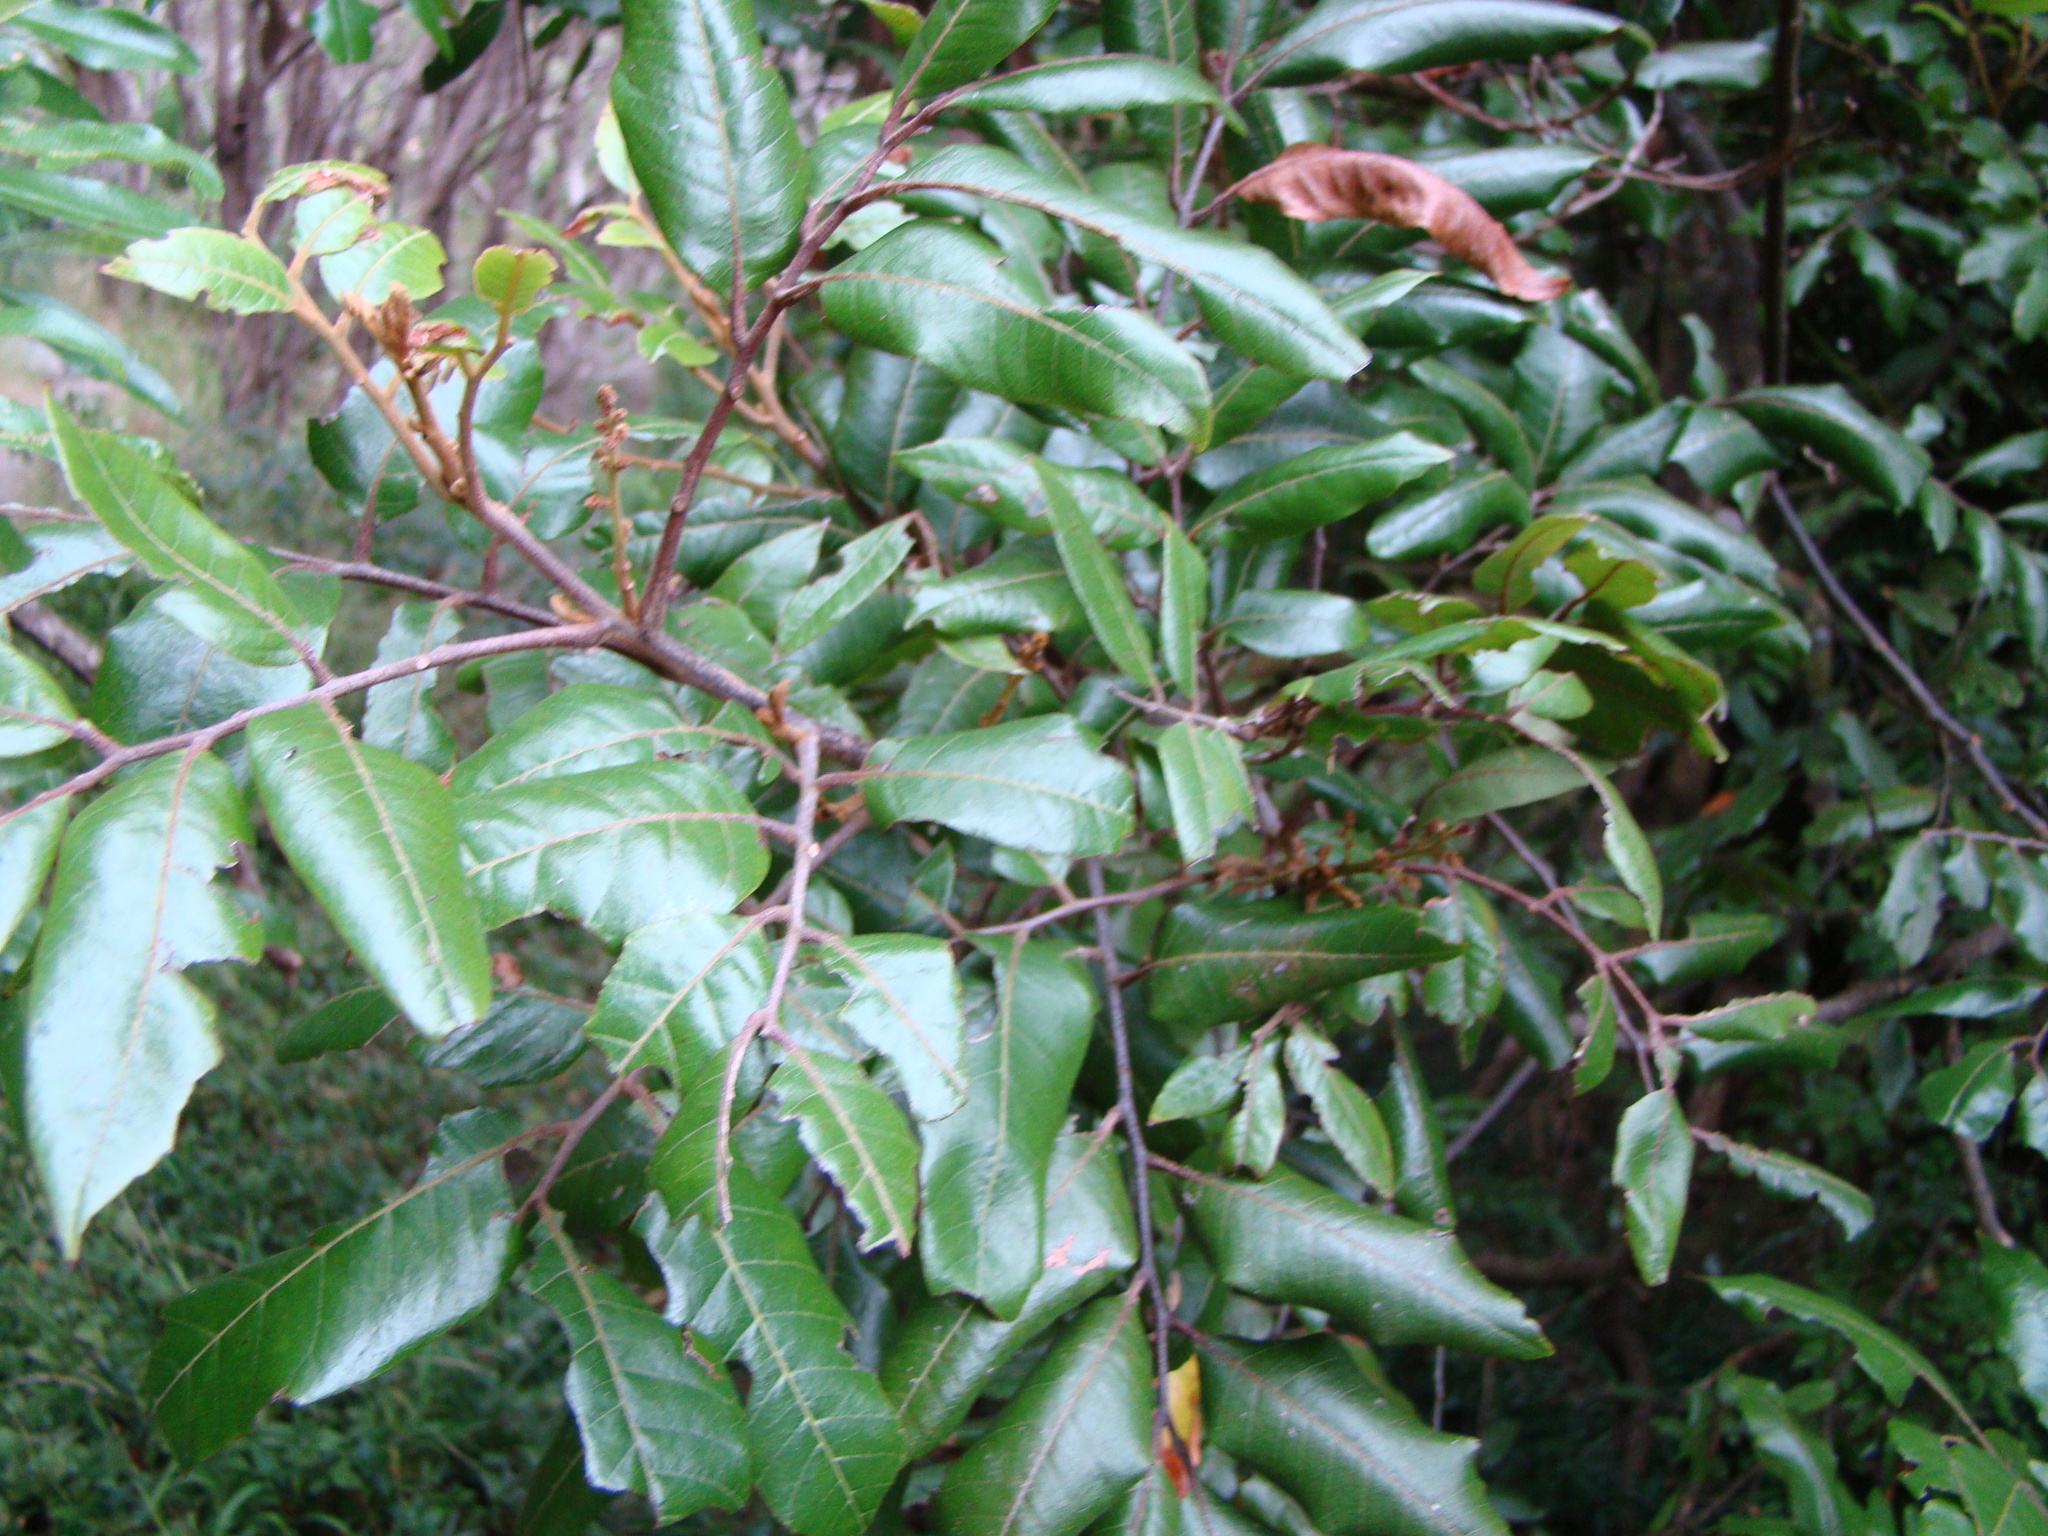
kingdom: Plantae
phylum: Tracheophyta
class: Magnoliopsida
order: Sapindales
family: Sapindaceae
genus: Alectryon
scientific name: Alectryon excelsus
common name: Three kings titoki
